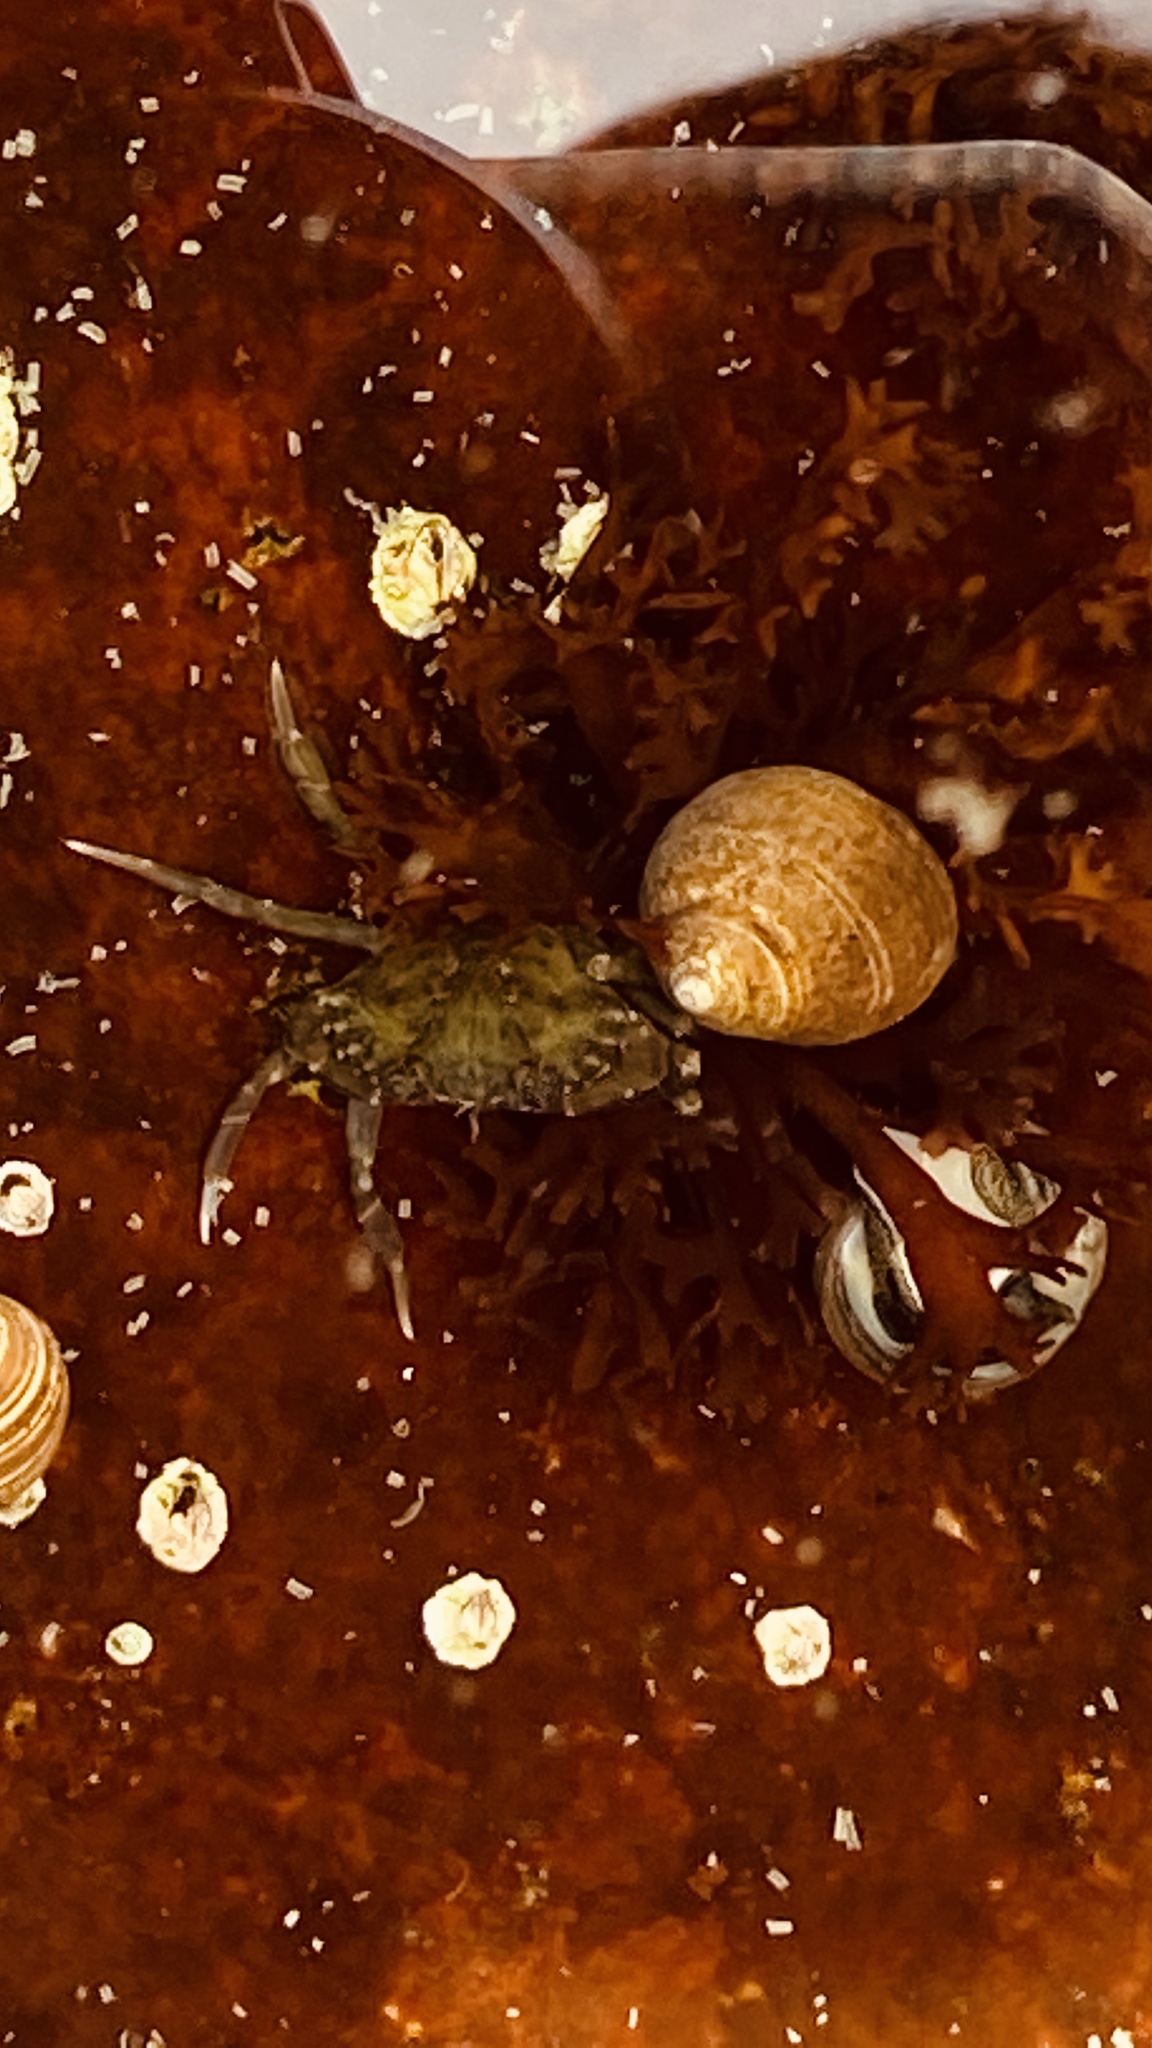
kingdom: Animalia
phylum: Arthropoda
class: Malacostraca
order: Decapoda
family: Carcinidae
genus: Carcinus
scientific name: Carcinus maenas
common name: European green crab
